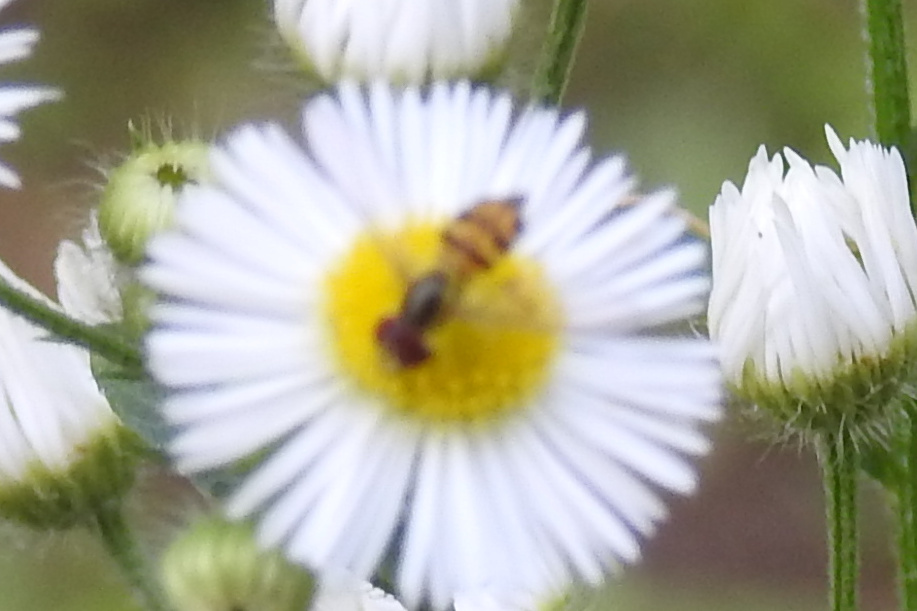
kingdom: Animalia
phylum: Arthropoda
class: Insecta
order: Diptera
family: Syrphidae
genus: Toxomerus
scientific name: Toxomerus geminatus
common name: Eastern calligrapher
